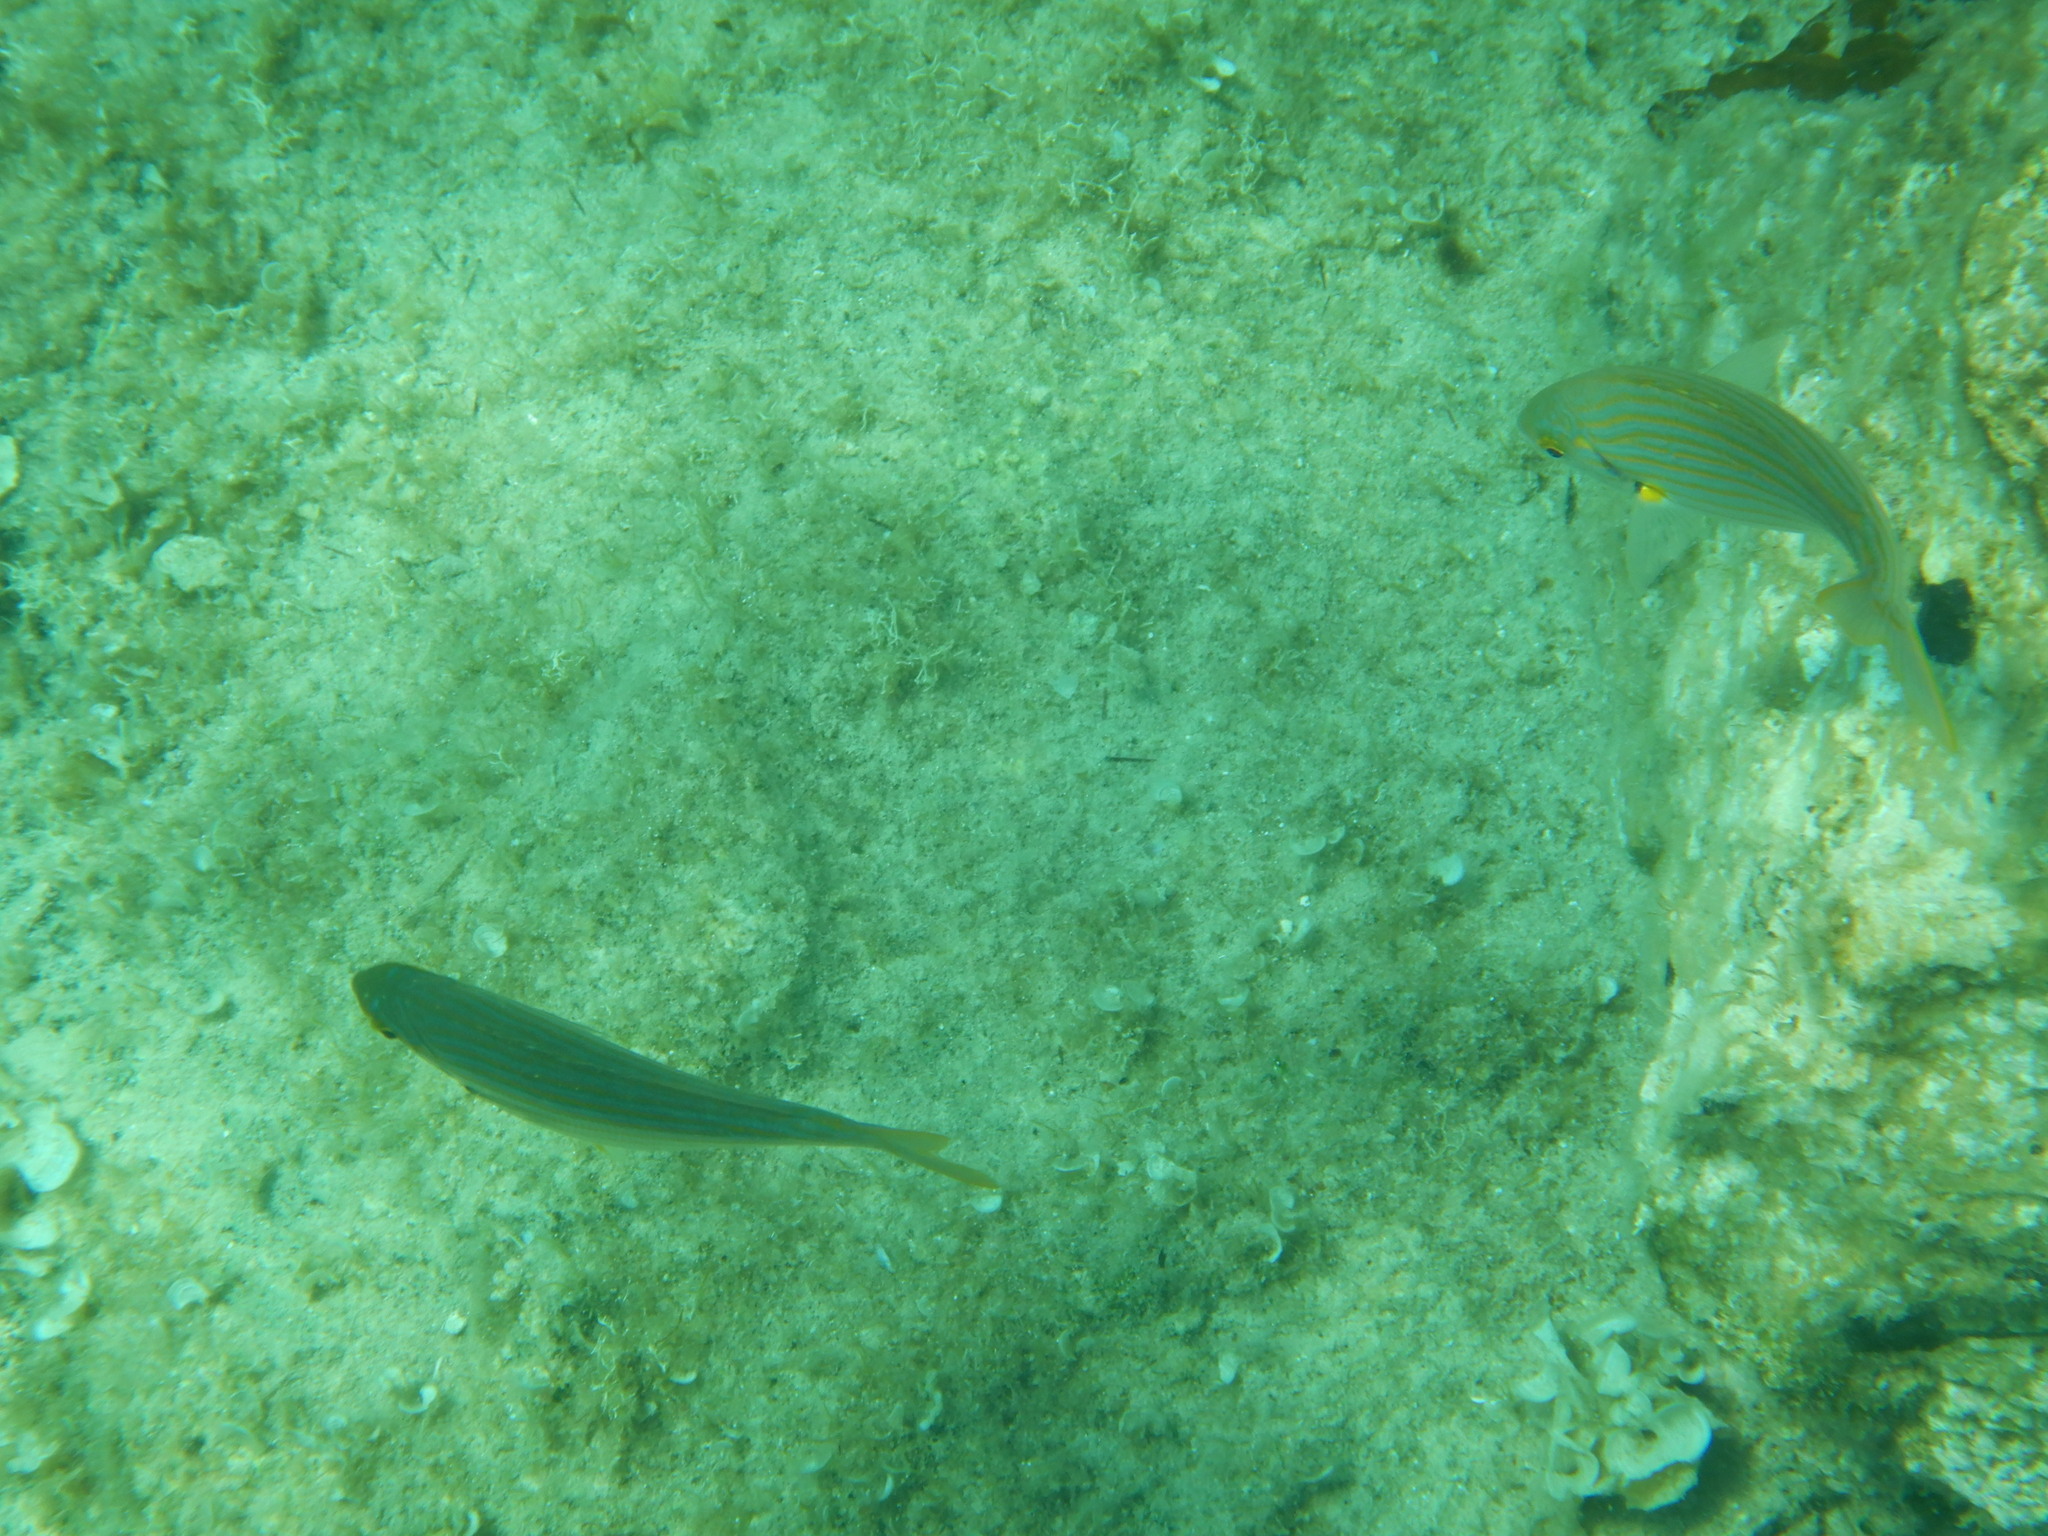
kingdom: Animalia
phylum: Chordata
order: Perciformes
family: Sparidae
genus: Sarpa
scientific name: Sarpa salpa
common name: Salema
